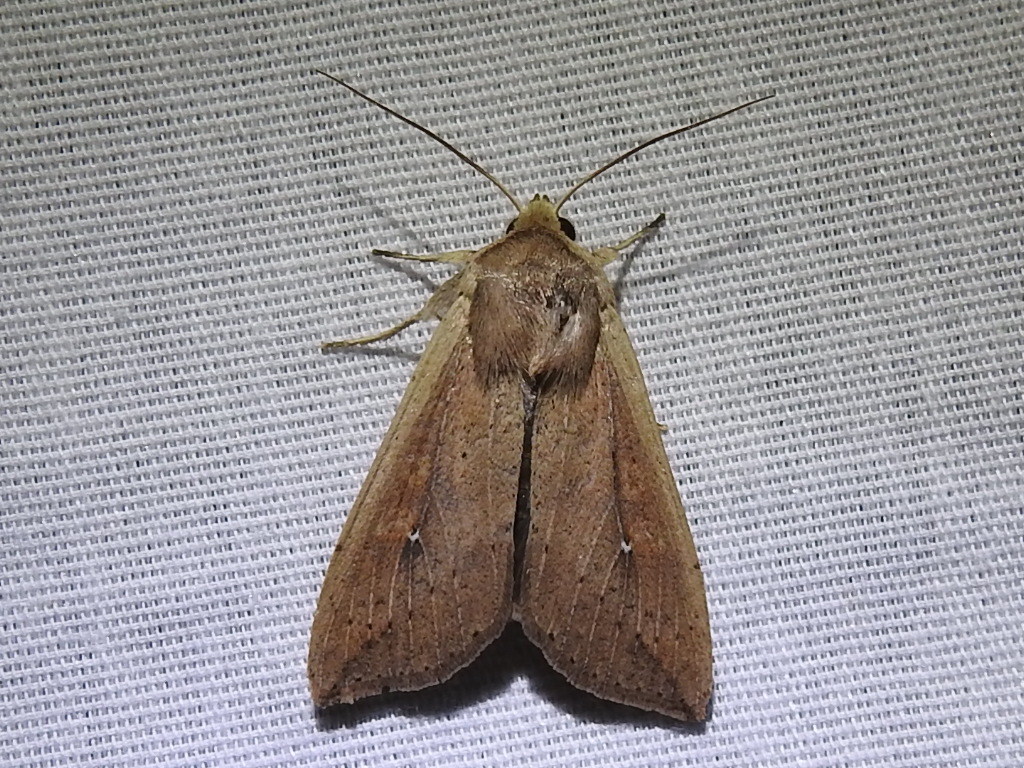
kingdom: Animalia
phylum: Arthropoda
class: Insecta
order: Lepidoptera
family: Noctuidae
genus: Mythimna
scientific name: Mythimna unipuncta
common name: White-speck
